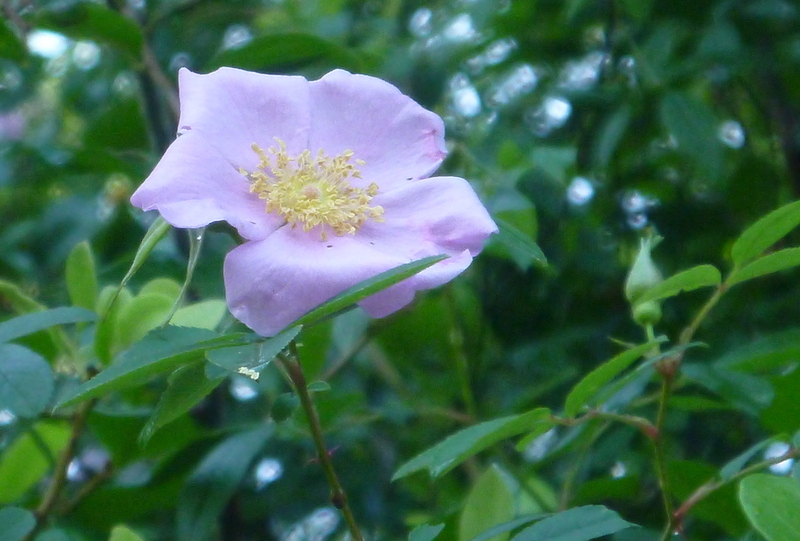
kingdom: Plantae
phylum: Tracheophyta
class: Magnoliopsida
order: Rosales
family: Rosaceae
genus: Rosa
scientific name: Rosa palustris
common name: Swamp rose
